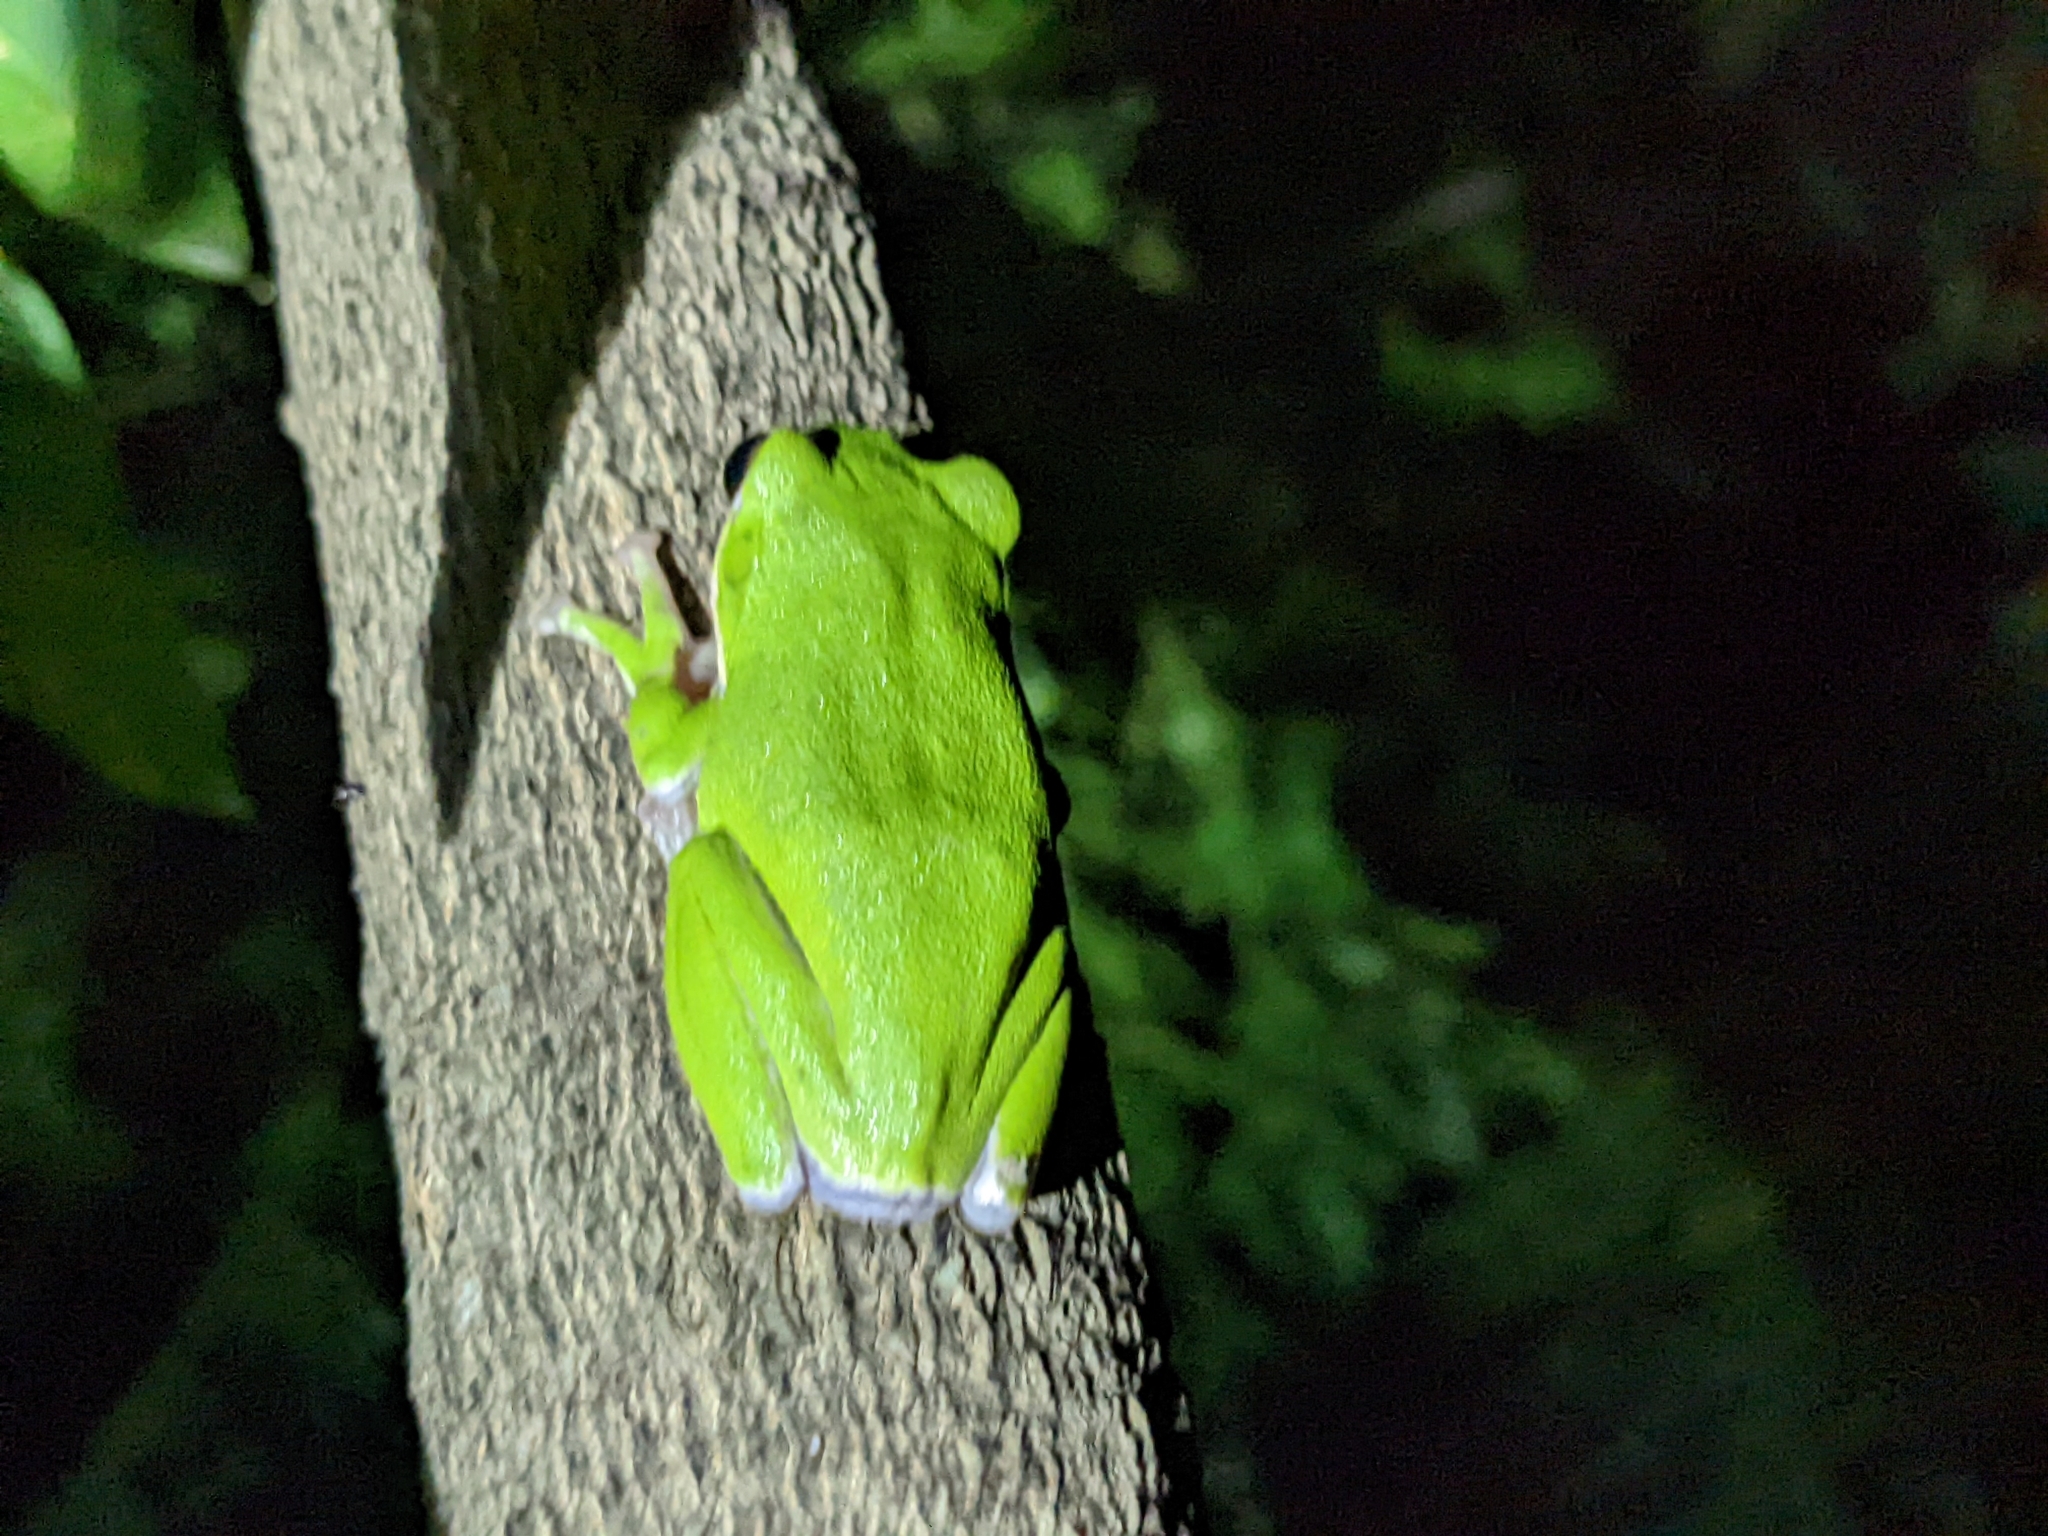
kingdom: Animalia
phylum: Chordata
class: Amphibia
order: Anura
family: Rhacophoridae
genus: Zhangixalus
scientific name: Zhangixalus arvalis
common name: Farmland green treefrog
